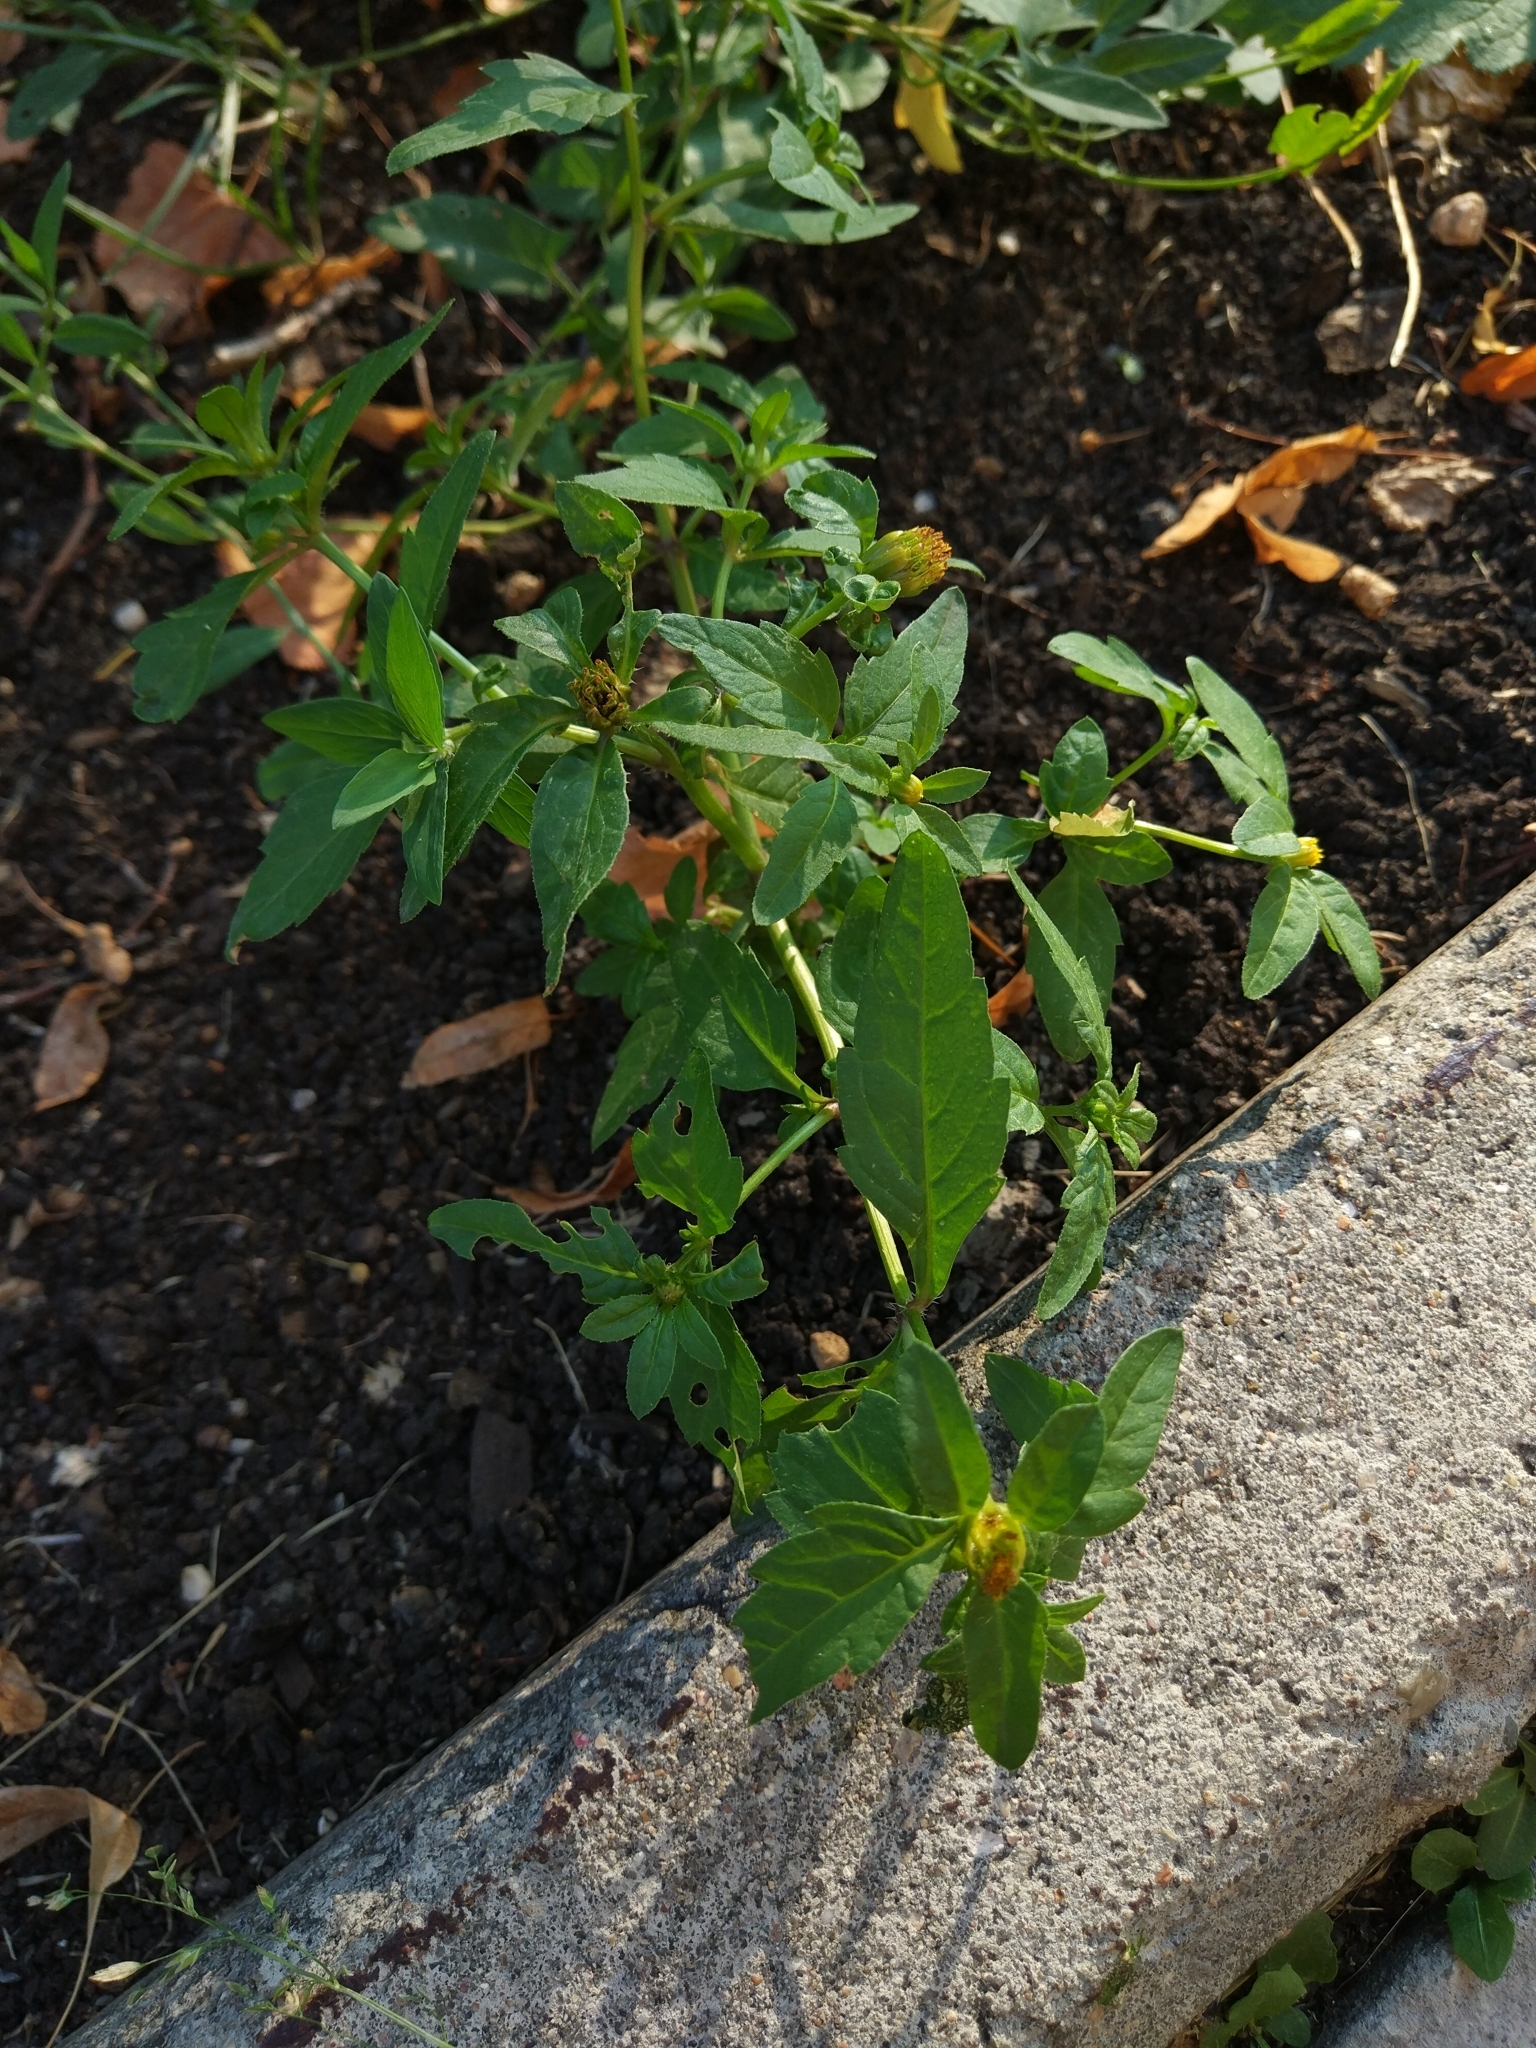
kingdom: Plantae
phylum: Tracheophyta
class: Magnoliopsida
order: Asterales
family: Asteraceae
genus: Bidens
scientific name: Bidens tripartita
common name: Trifid bur-marigold
